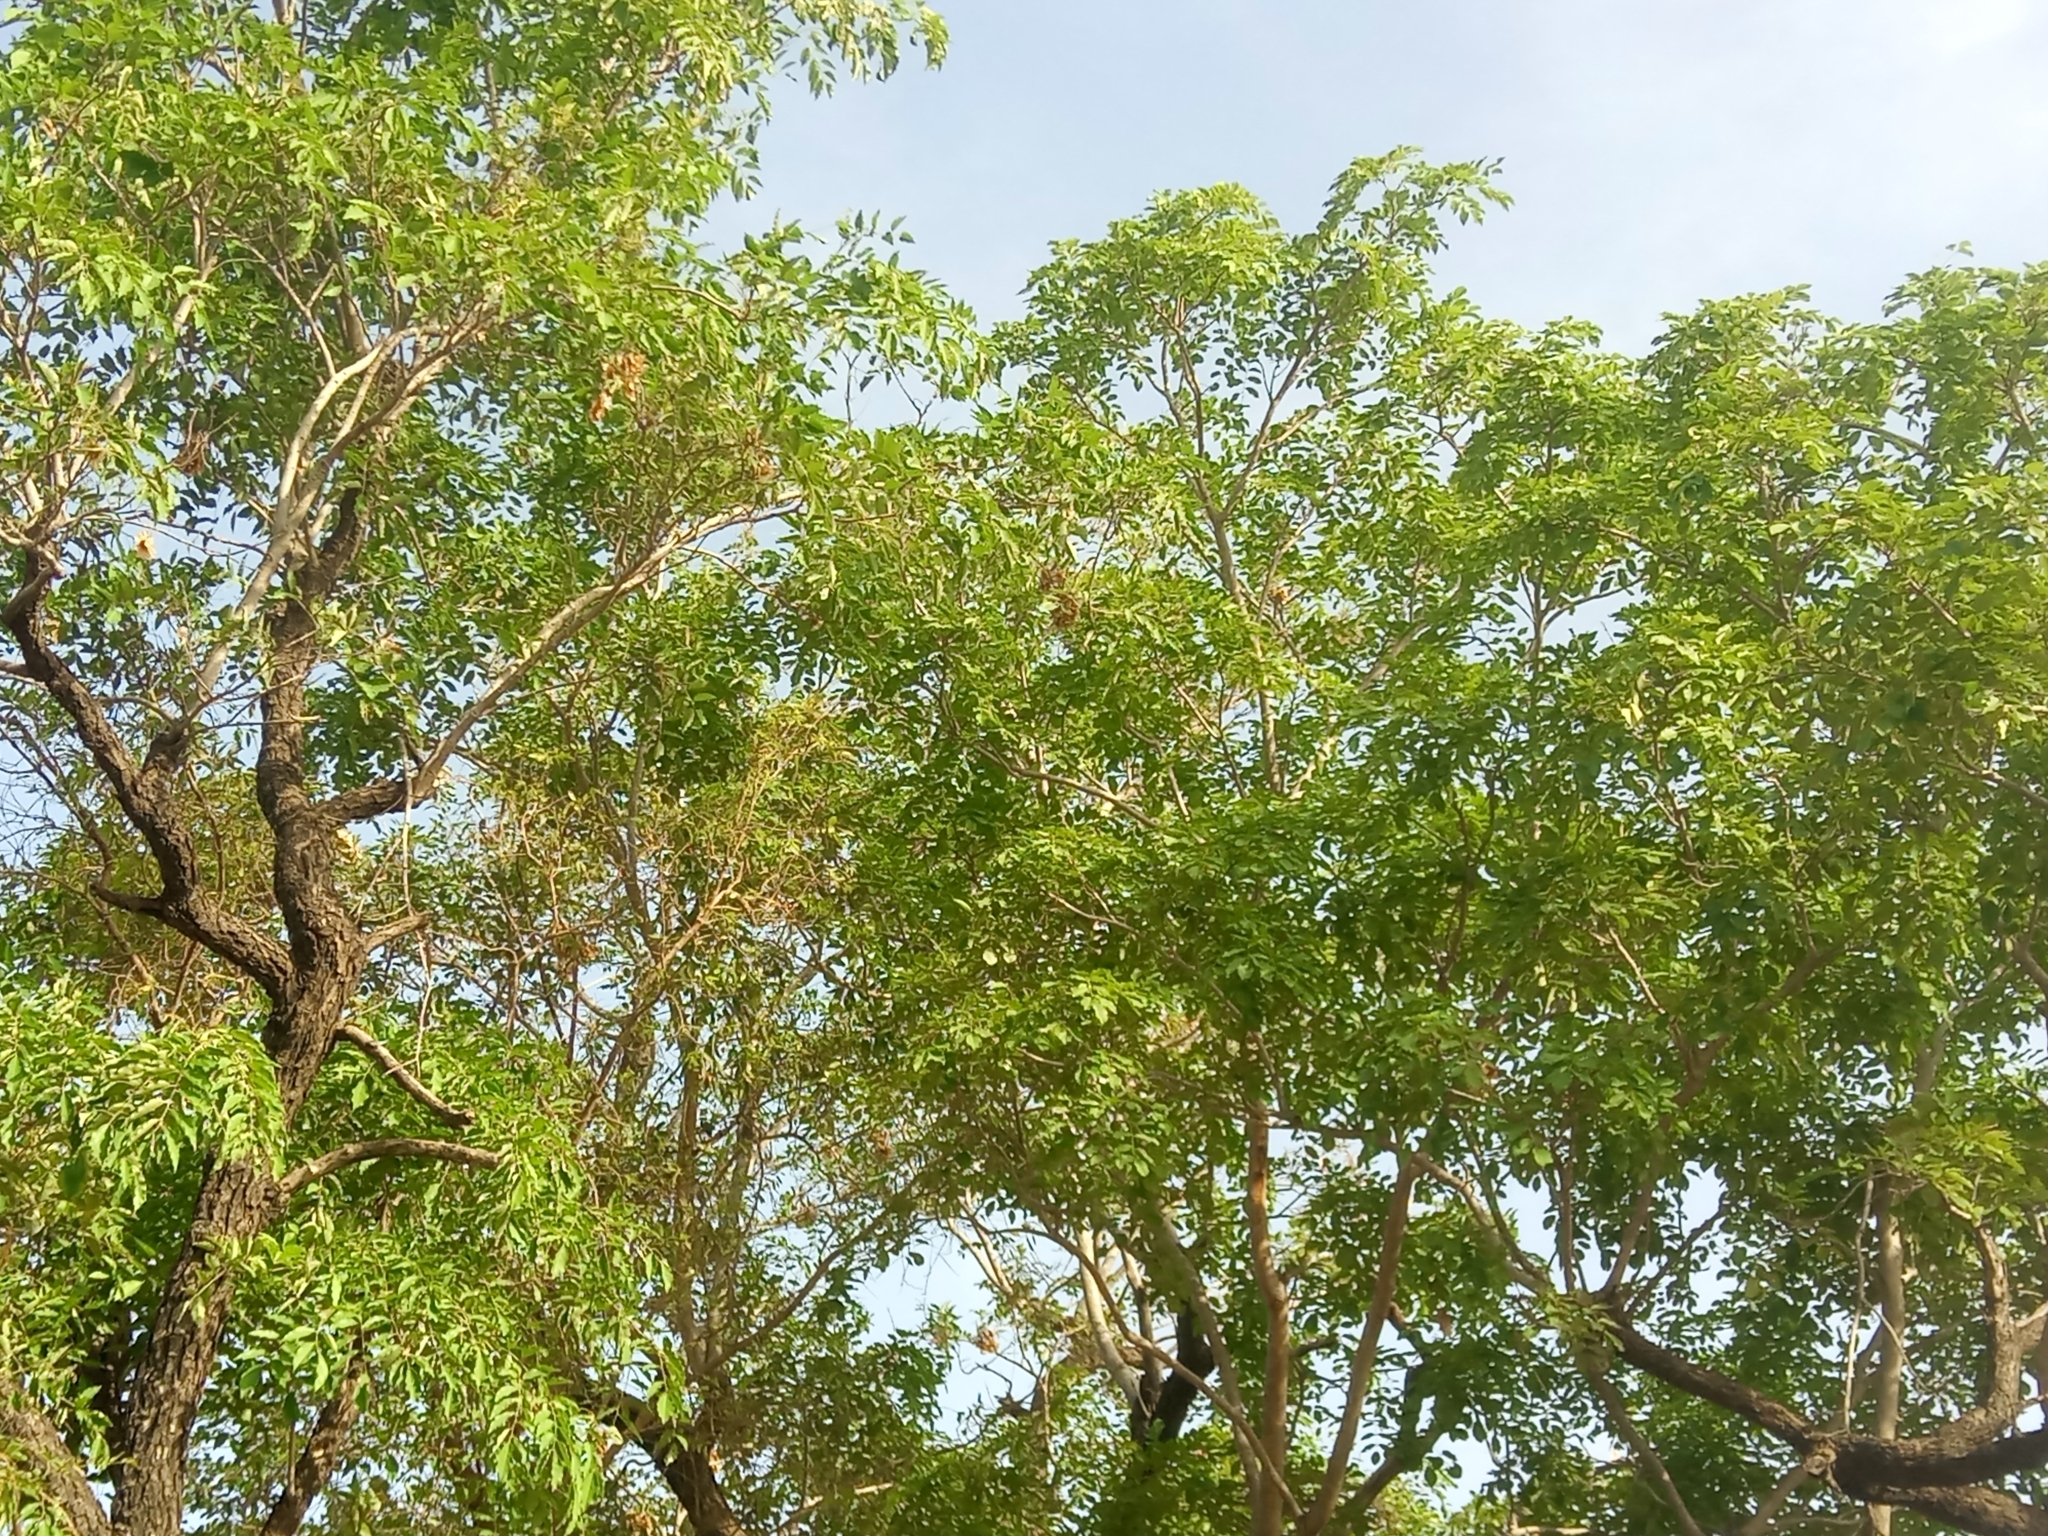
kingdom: Plantae
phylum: Tracheophyta
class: Magnoliopsida
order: Fabales
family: Fabaceae
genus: Pterocarpus
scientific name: Pterocarpus erinaceus
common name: African rosewood
